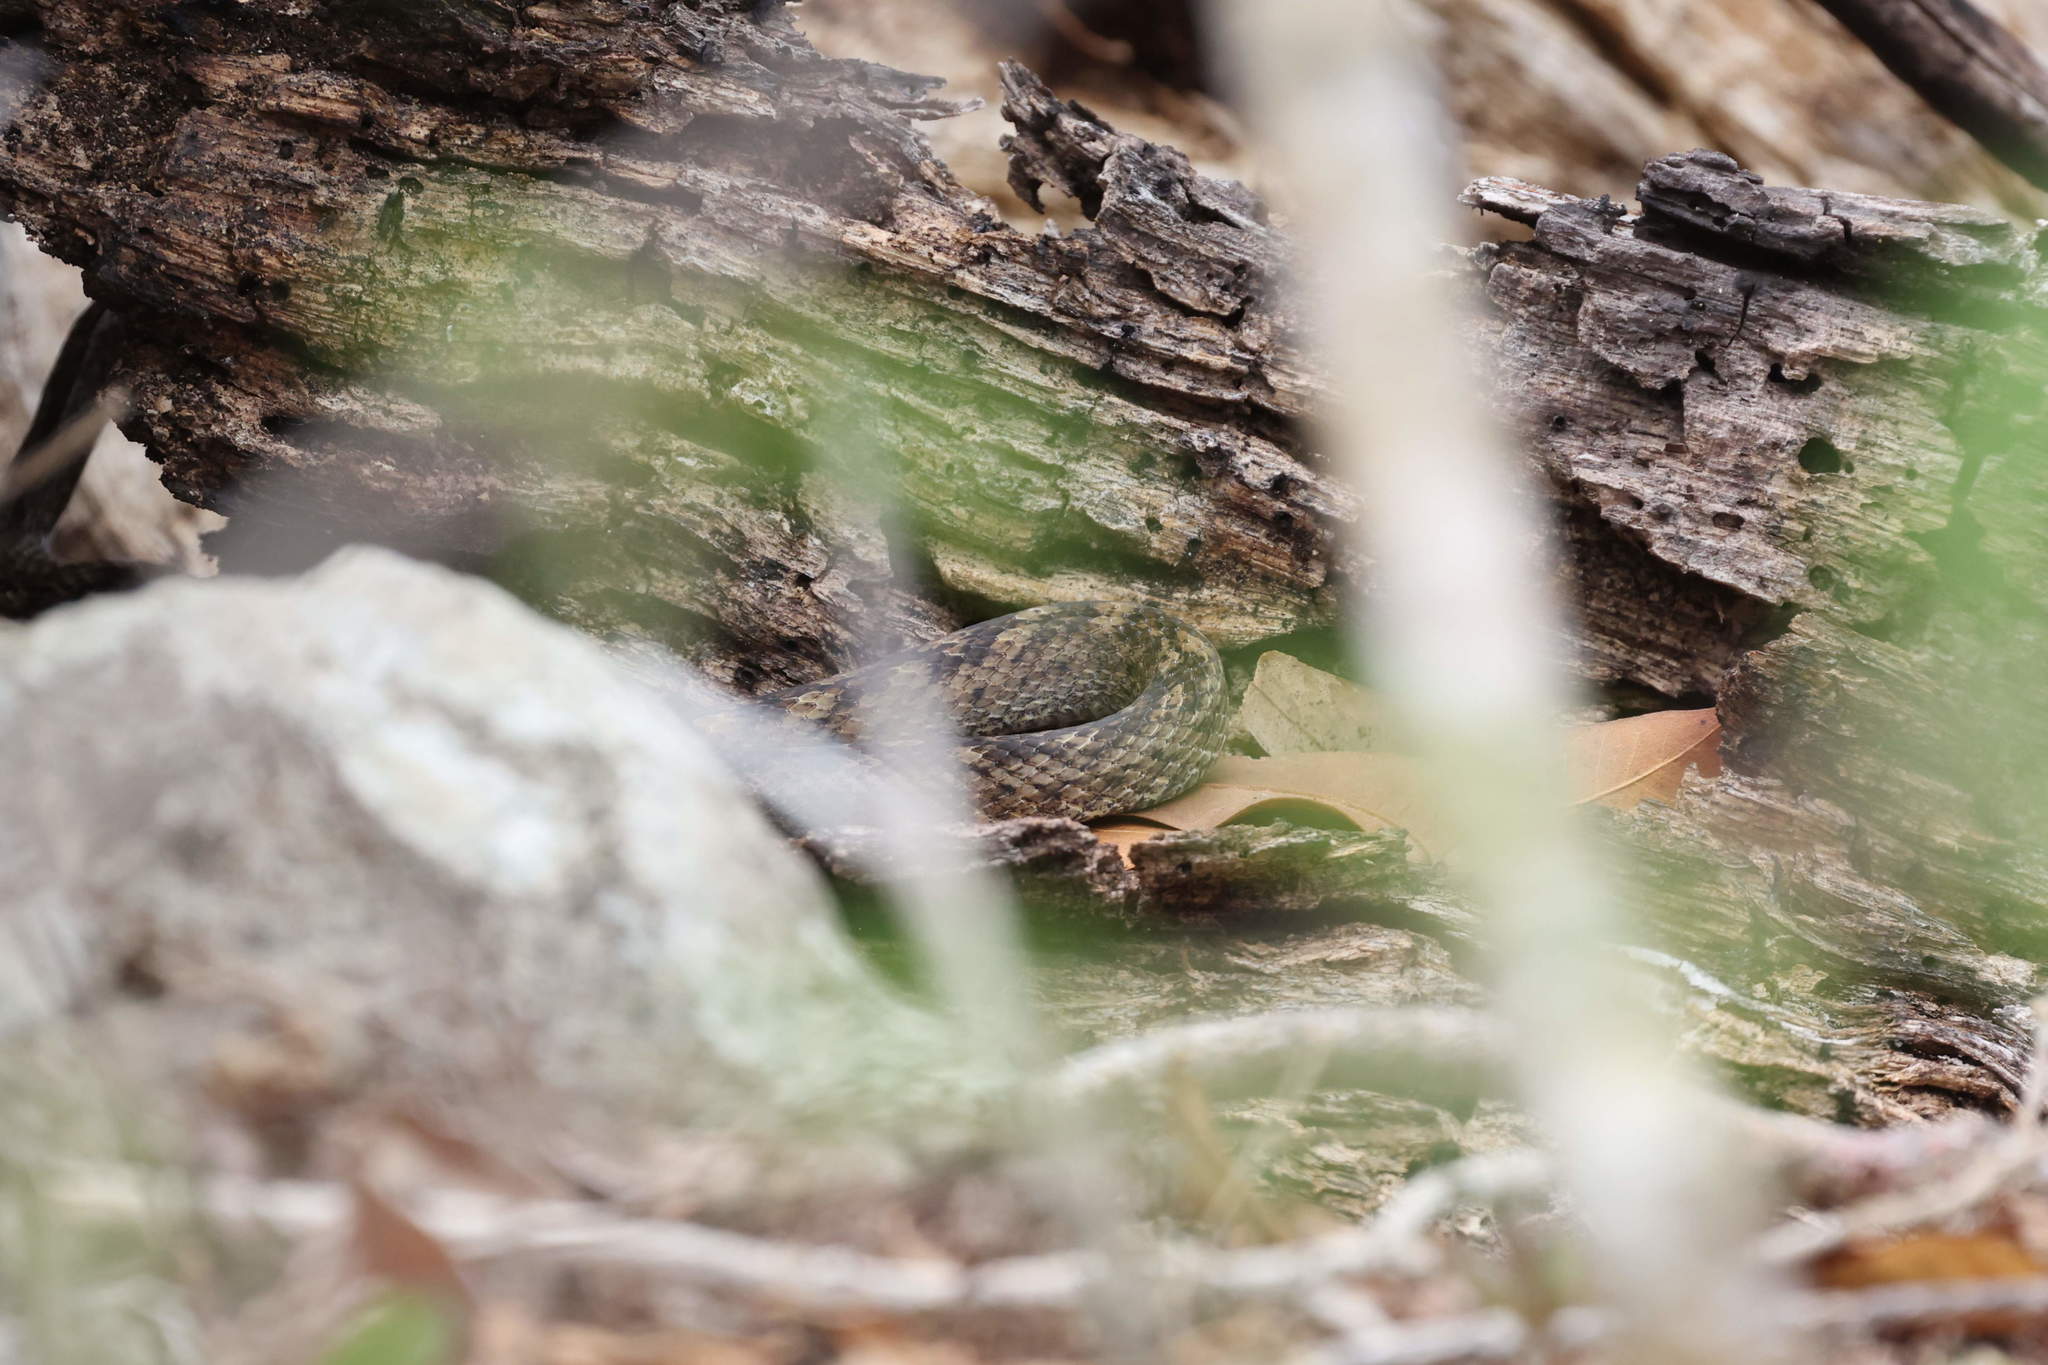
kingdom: Animalia
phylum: Chordata
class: Squamata
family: Colubridae
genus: Alsophis
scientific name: Alsophis danforthi
